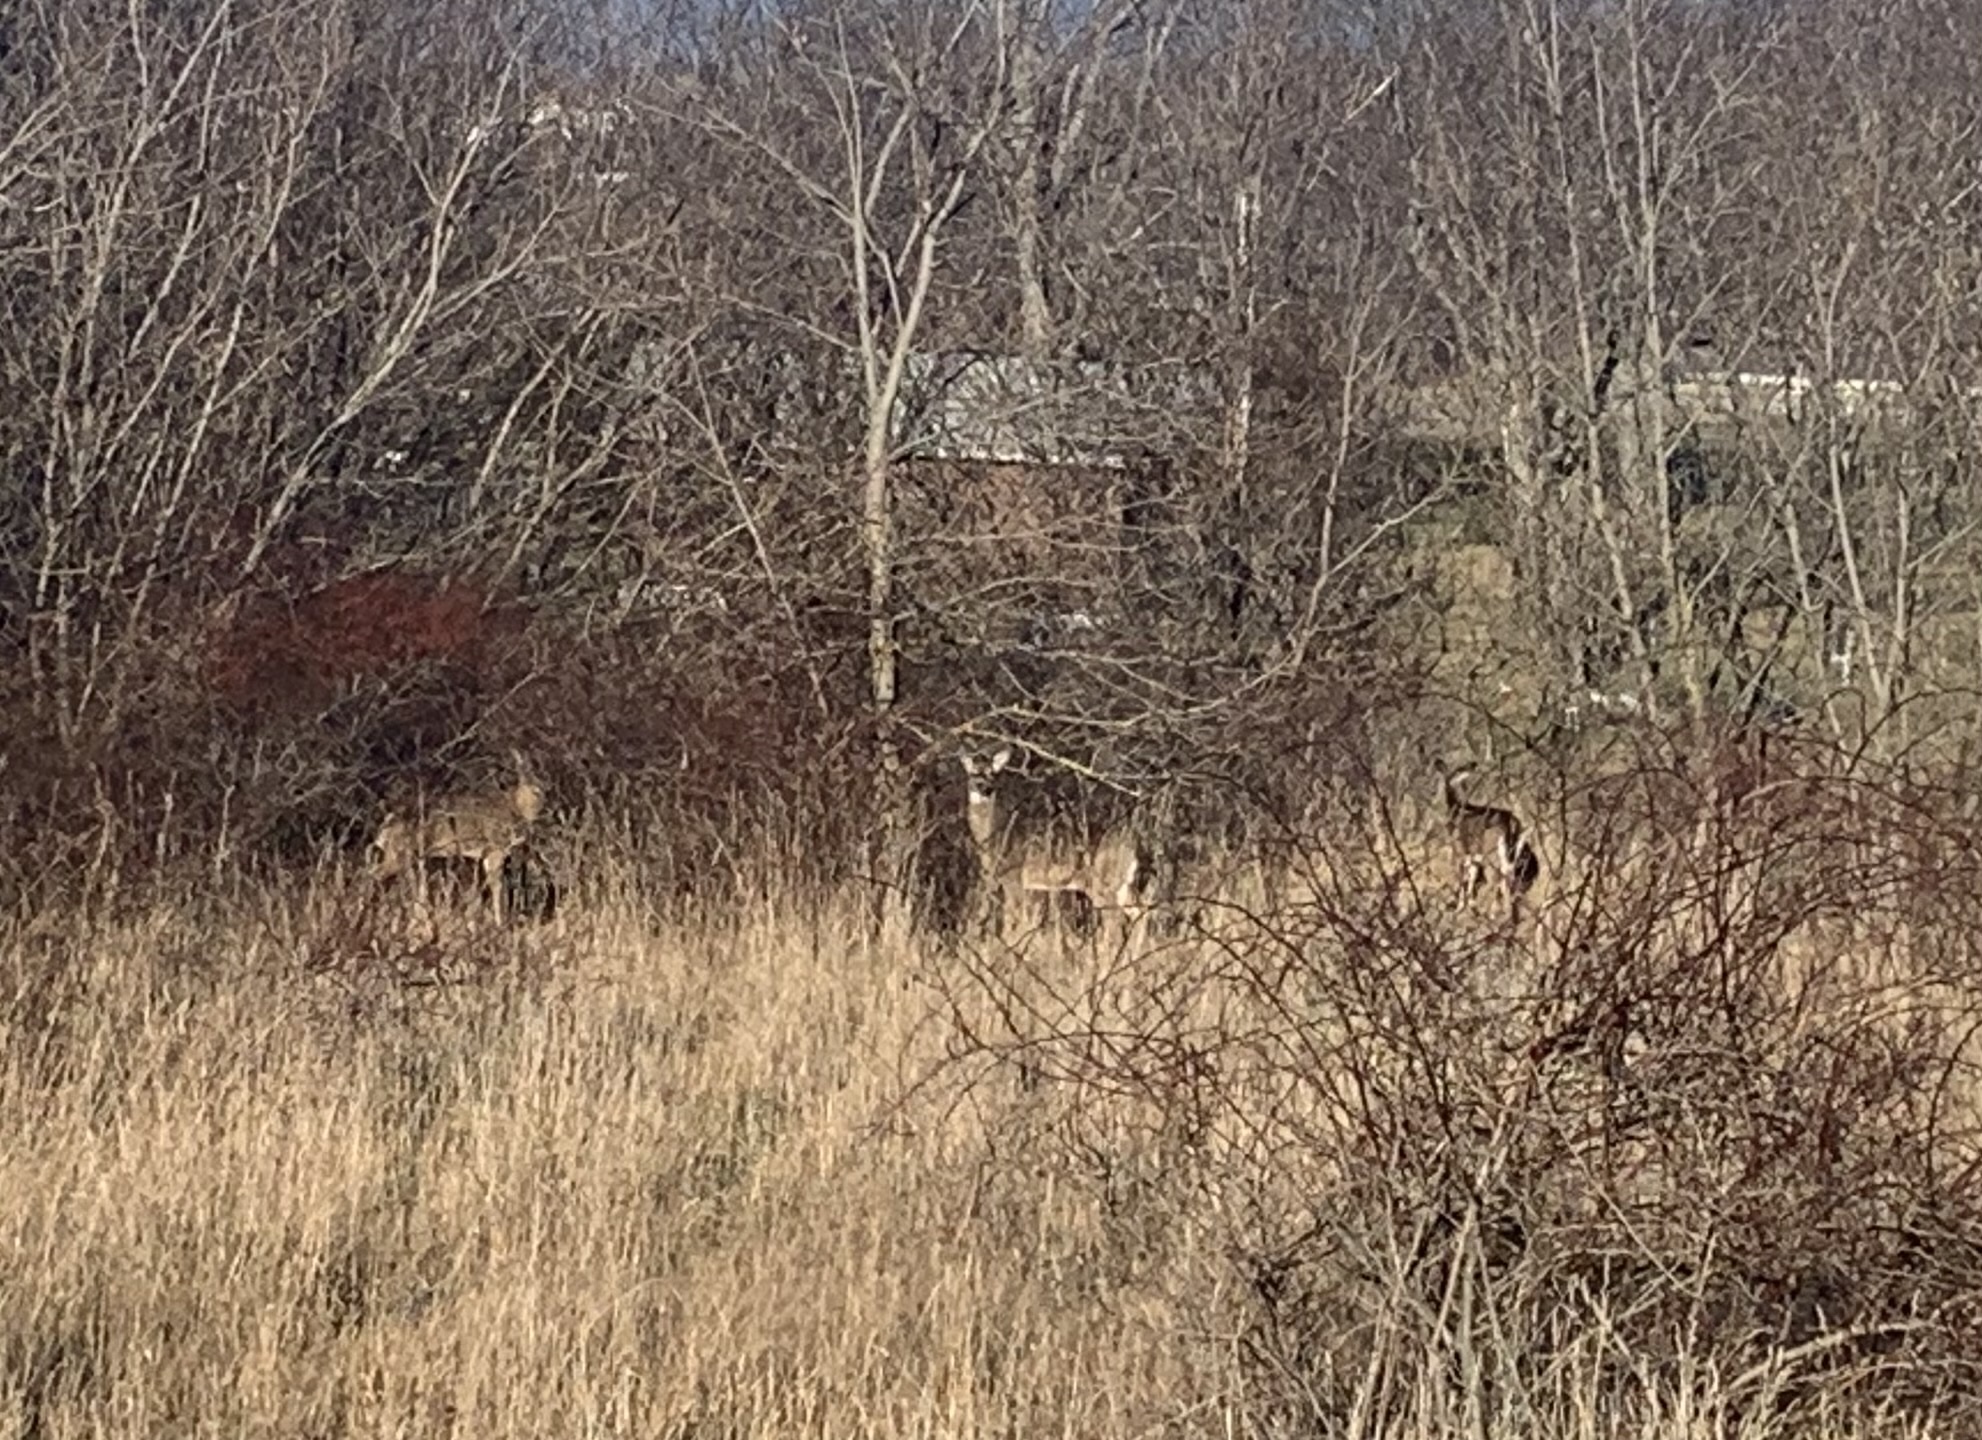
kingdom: Animalia
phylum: Chordata
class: Mammalia
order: Artiodactyla
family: Cervidae
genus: Odocoileus
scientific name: Odocoileus virginianus
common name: White-tailed deer
